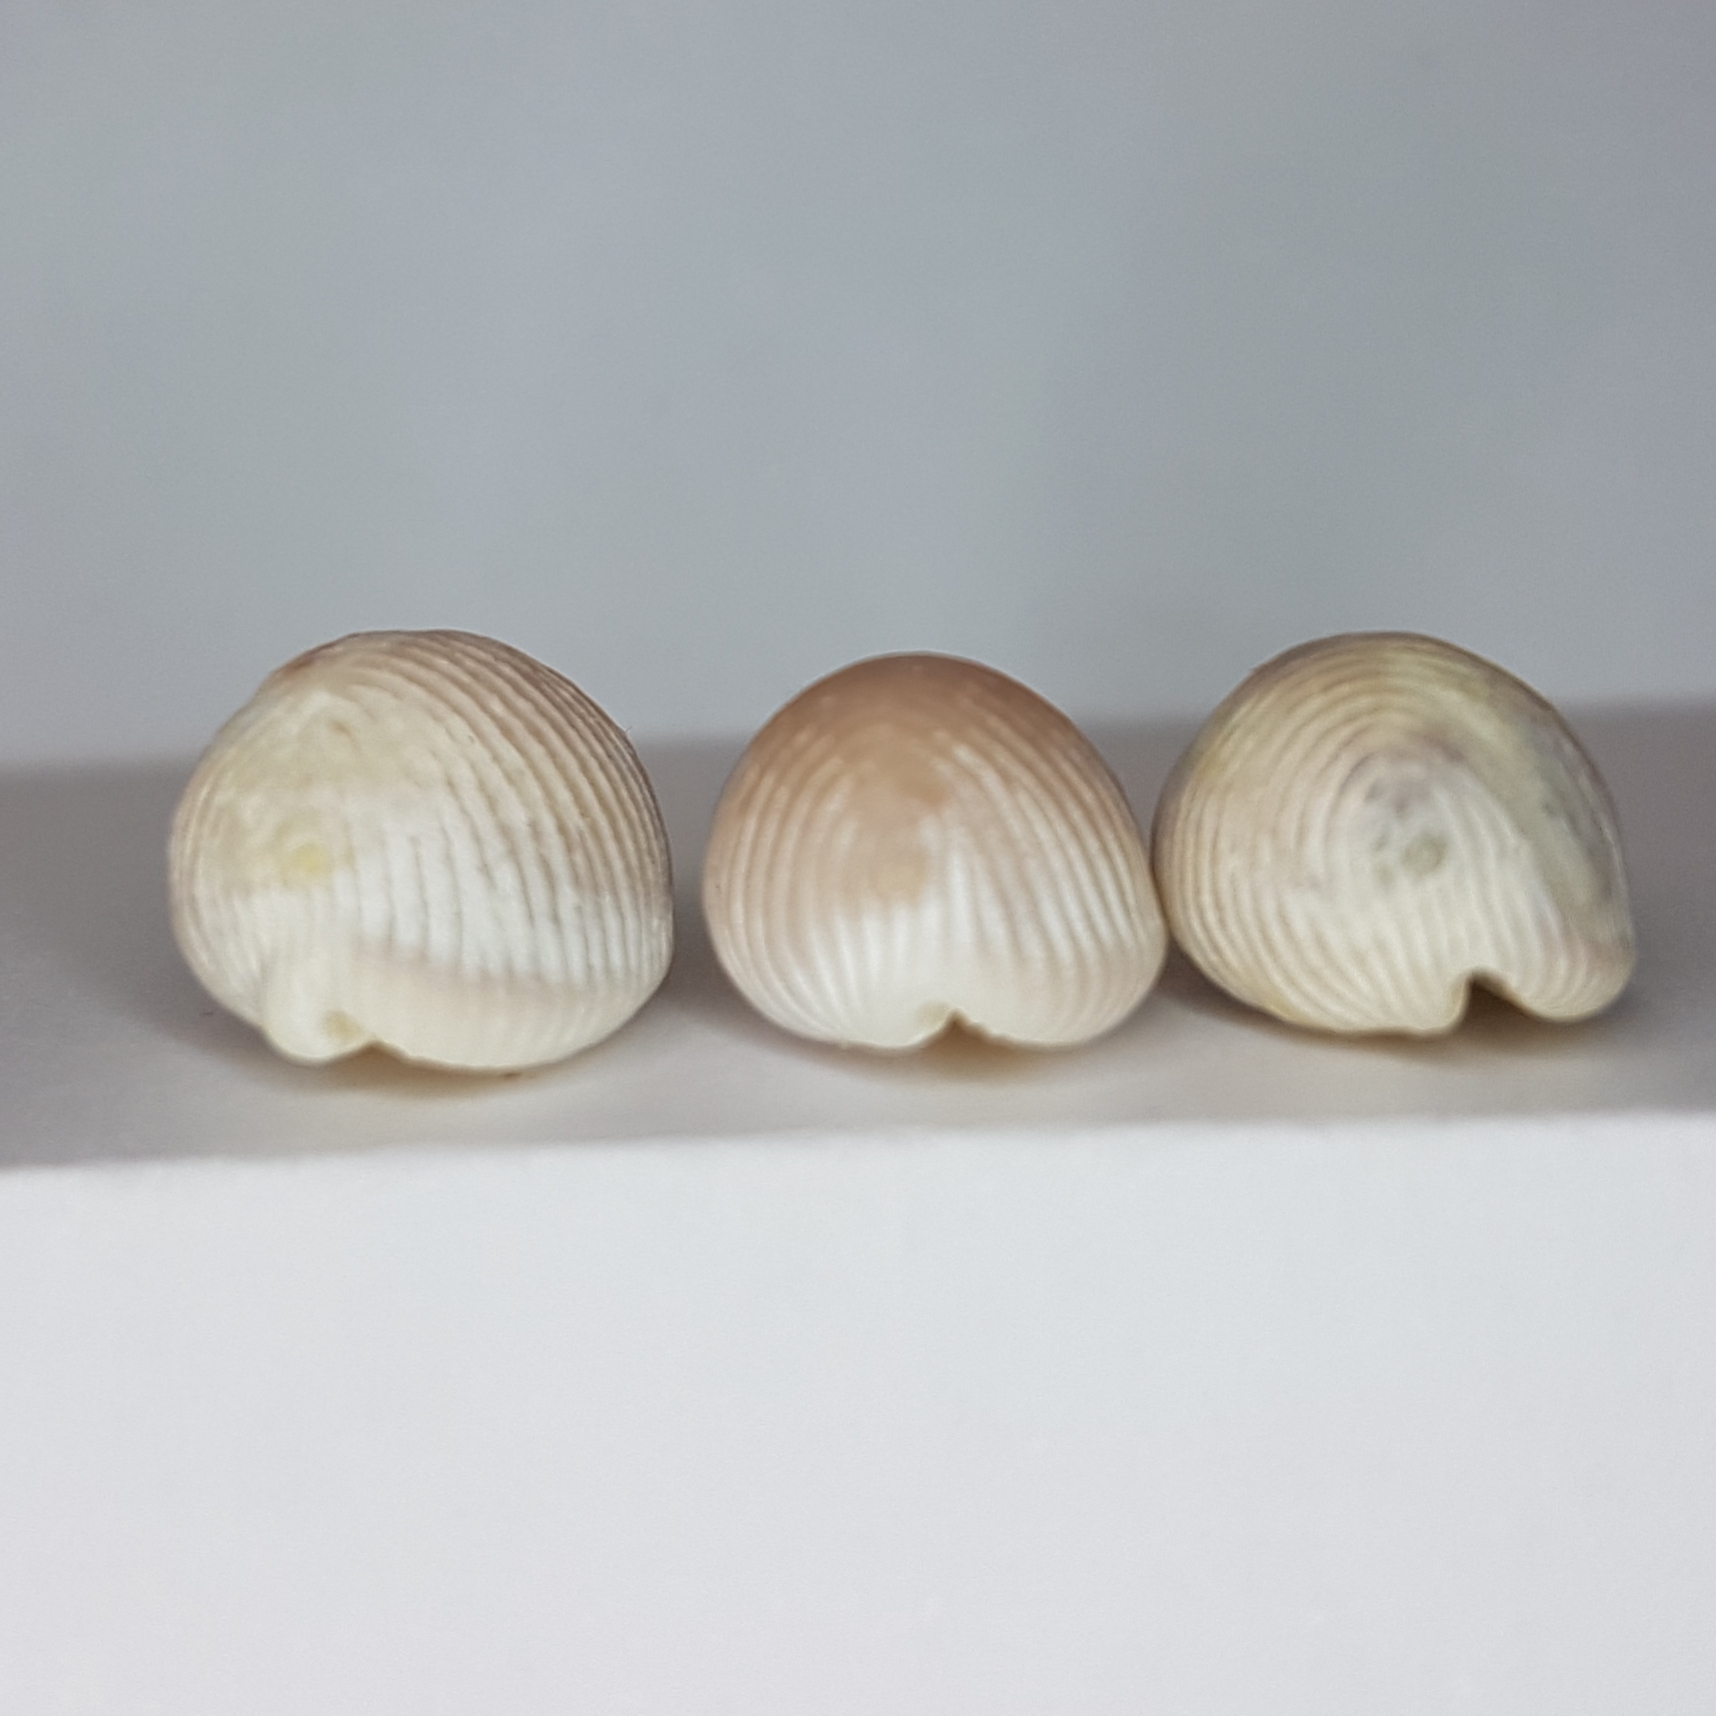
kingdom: Animalia
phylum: Mollusca
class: Gastropoda
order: Littorinimorpha
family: Triviidae
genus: Trivia
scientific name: Trivia arctica
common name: Arctic cowrie
